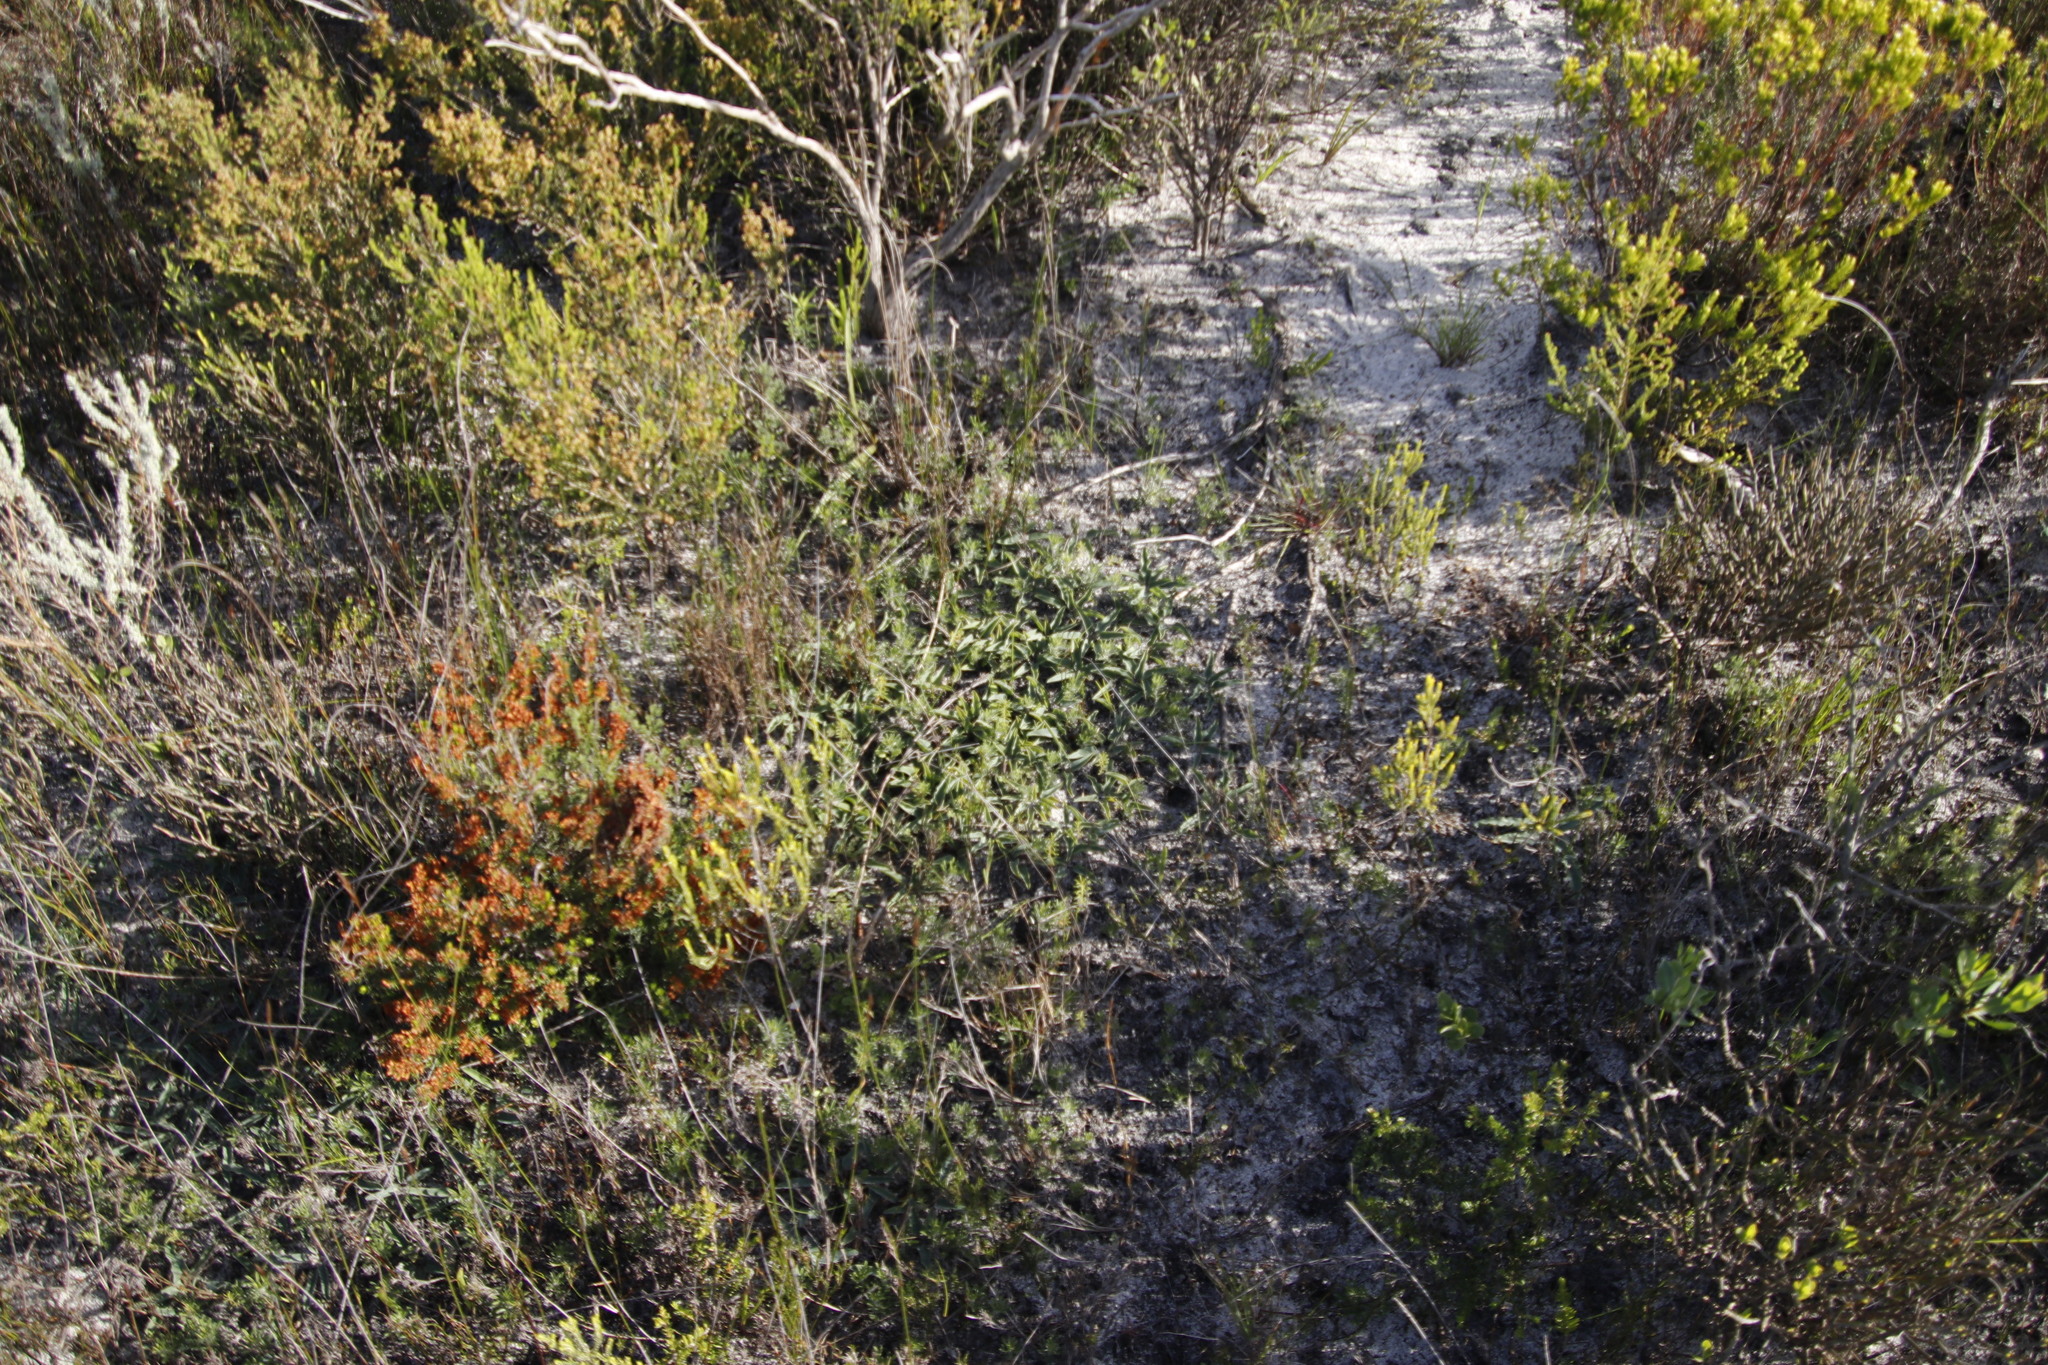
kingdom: Plantae
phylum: Tracheophyta
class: Magnoliopsida
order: Malpighiales
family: Euphorbiaceae
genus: Euphorbia
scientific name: Euphorbia tuberosa
